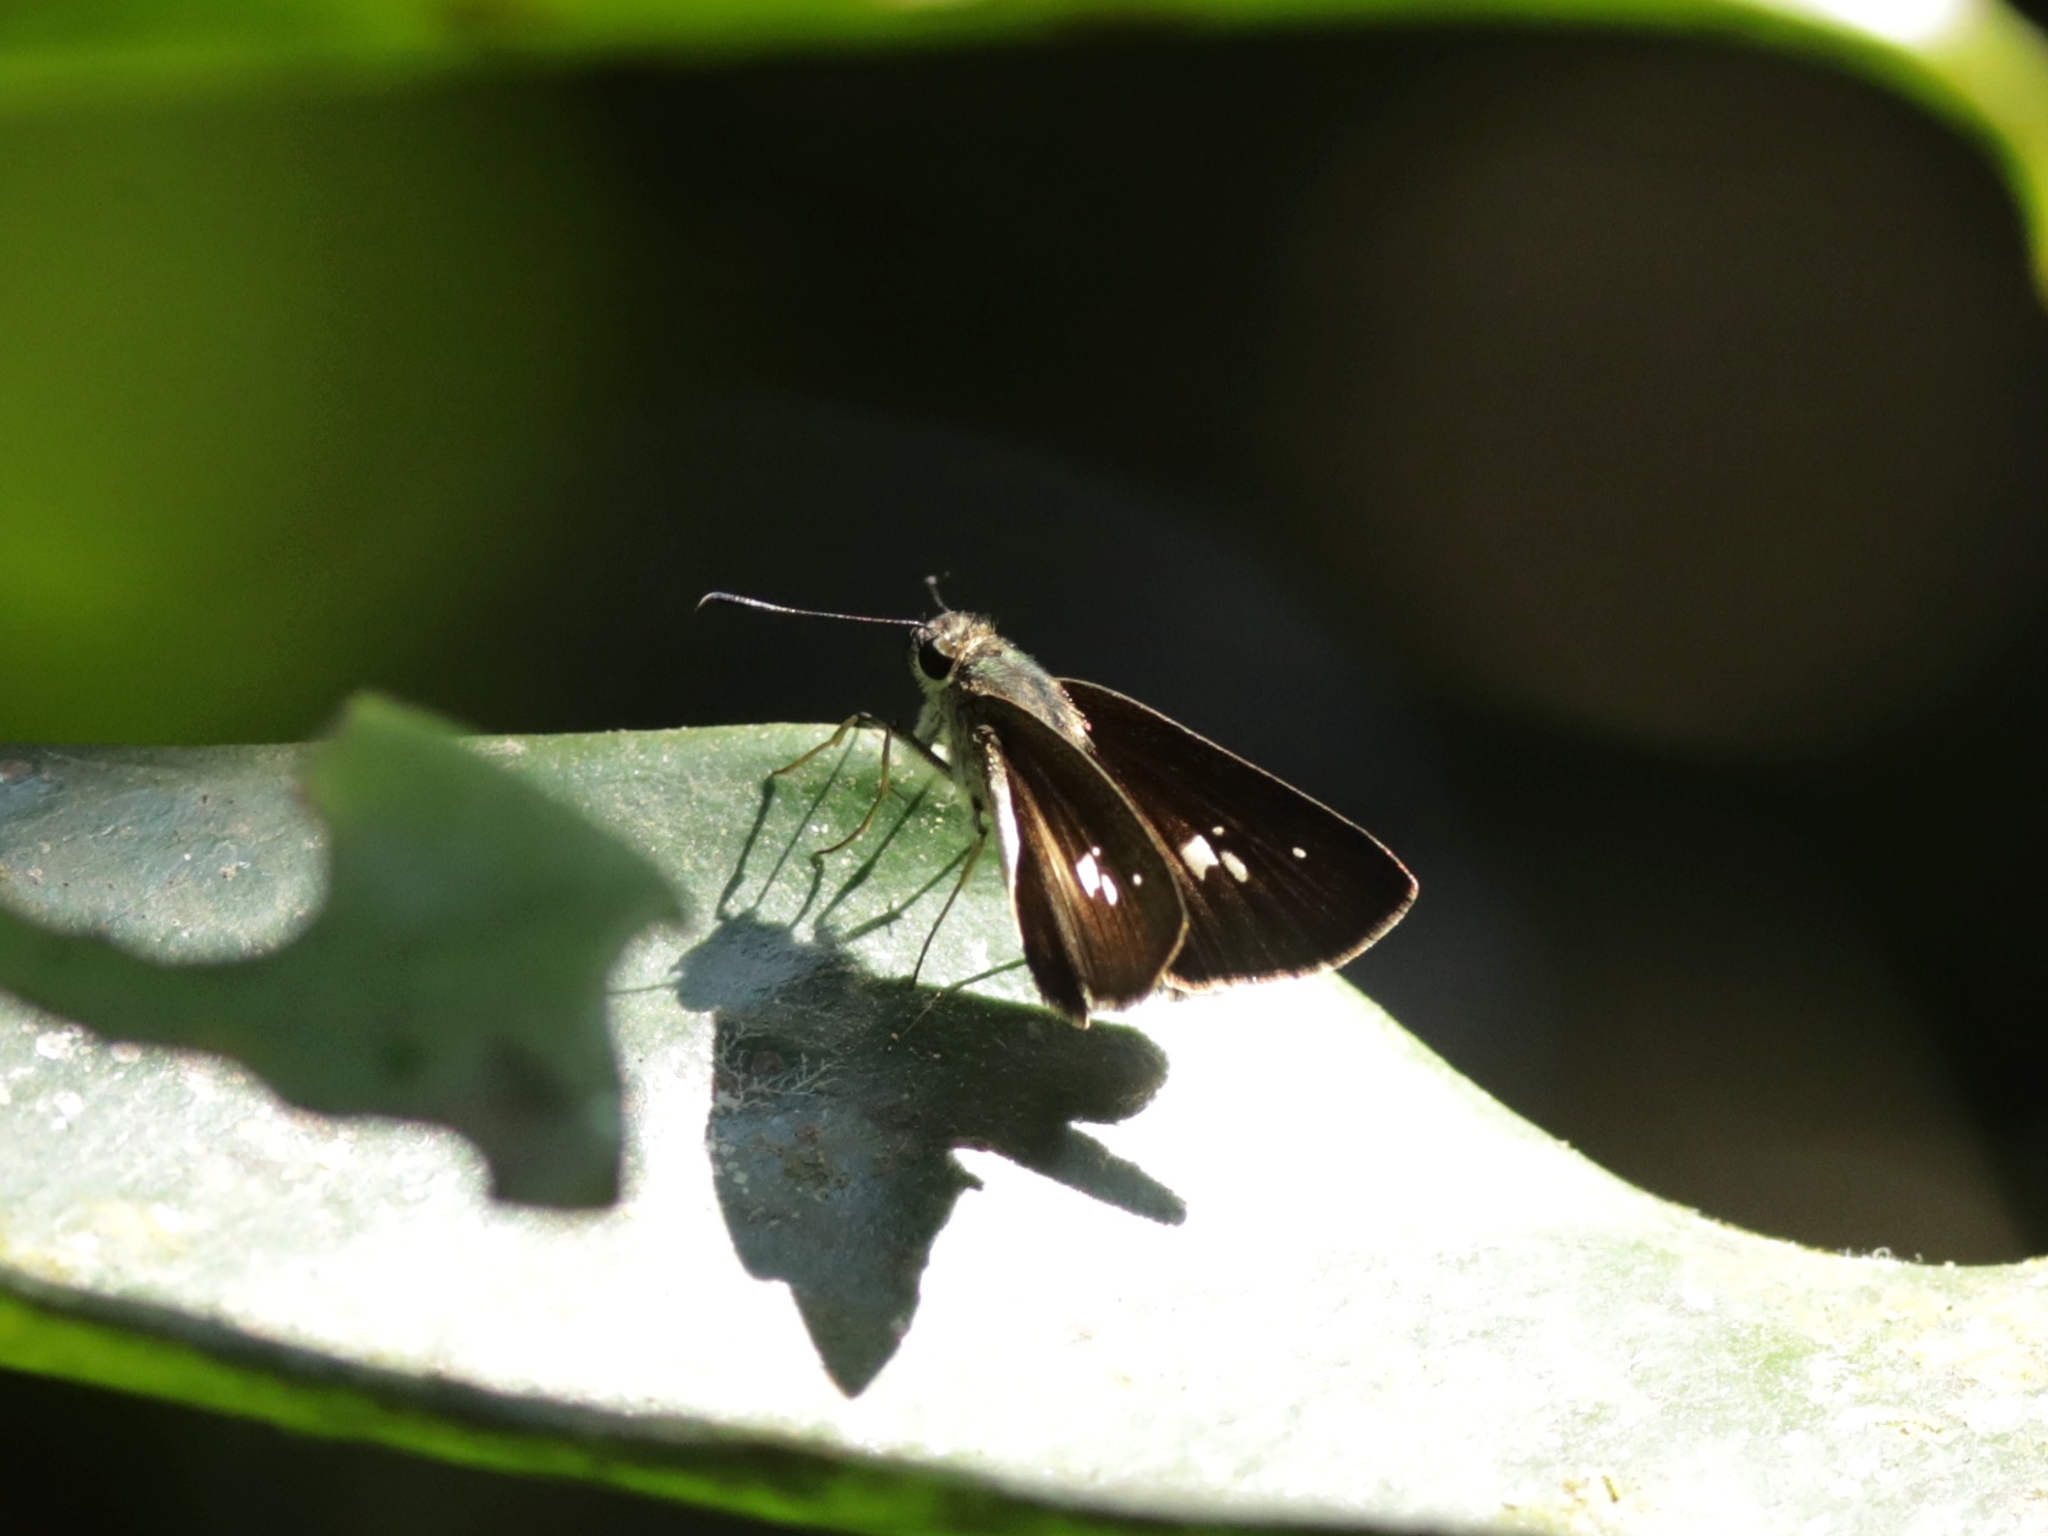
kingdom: Animalia
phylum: Arthropoda
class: Insecta
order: Lepidoptera
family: Hesperiidae
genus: Suastus
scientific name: Suastus minuta
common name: Small palm bob
